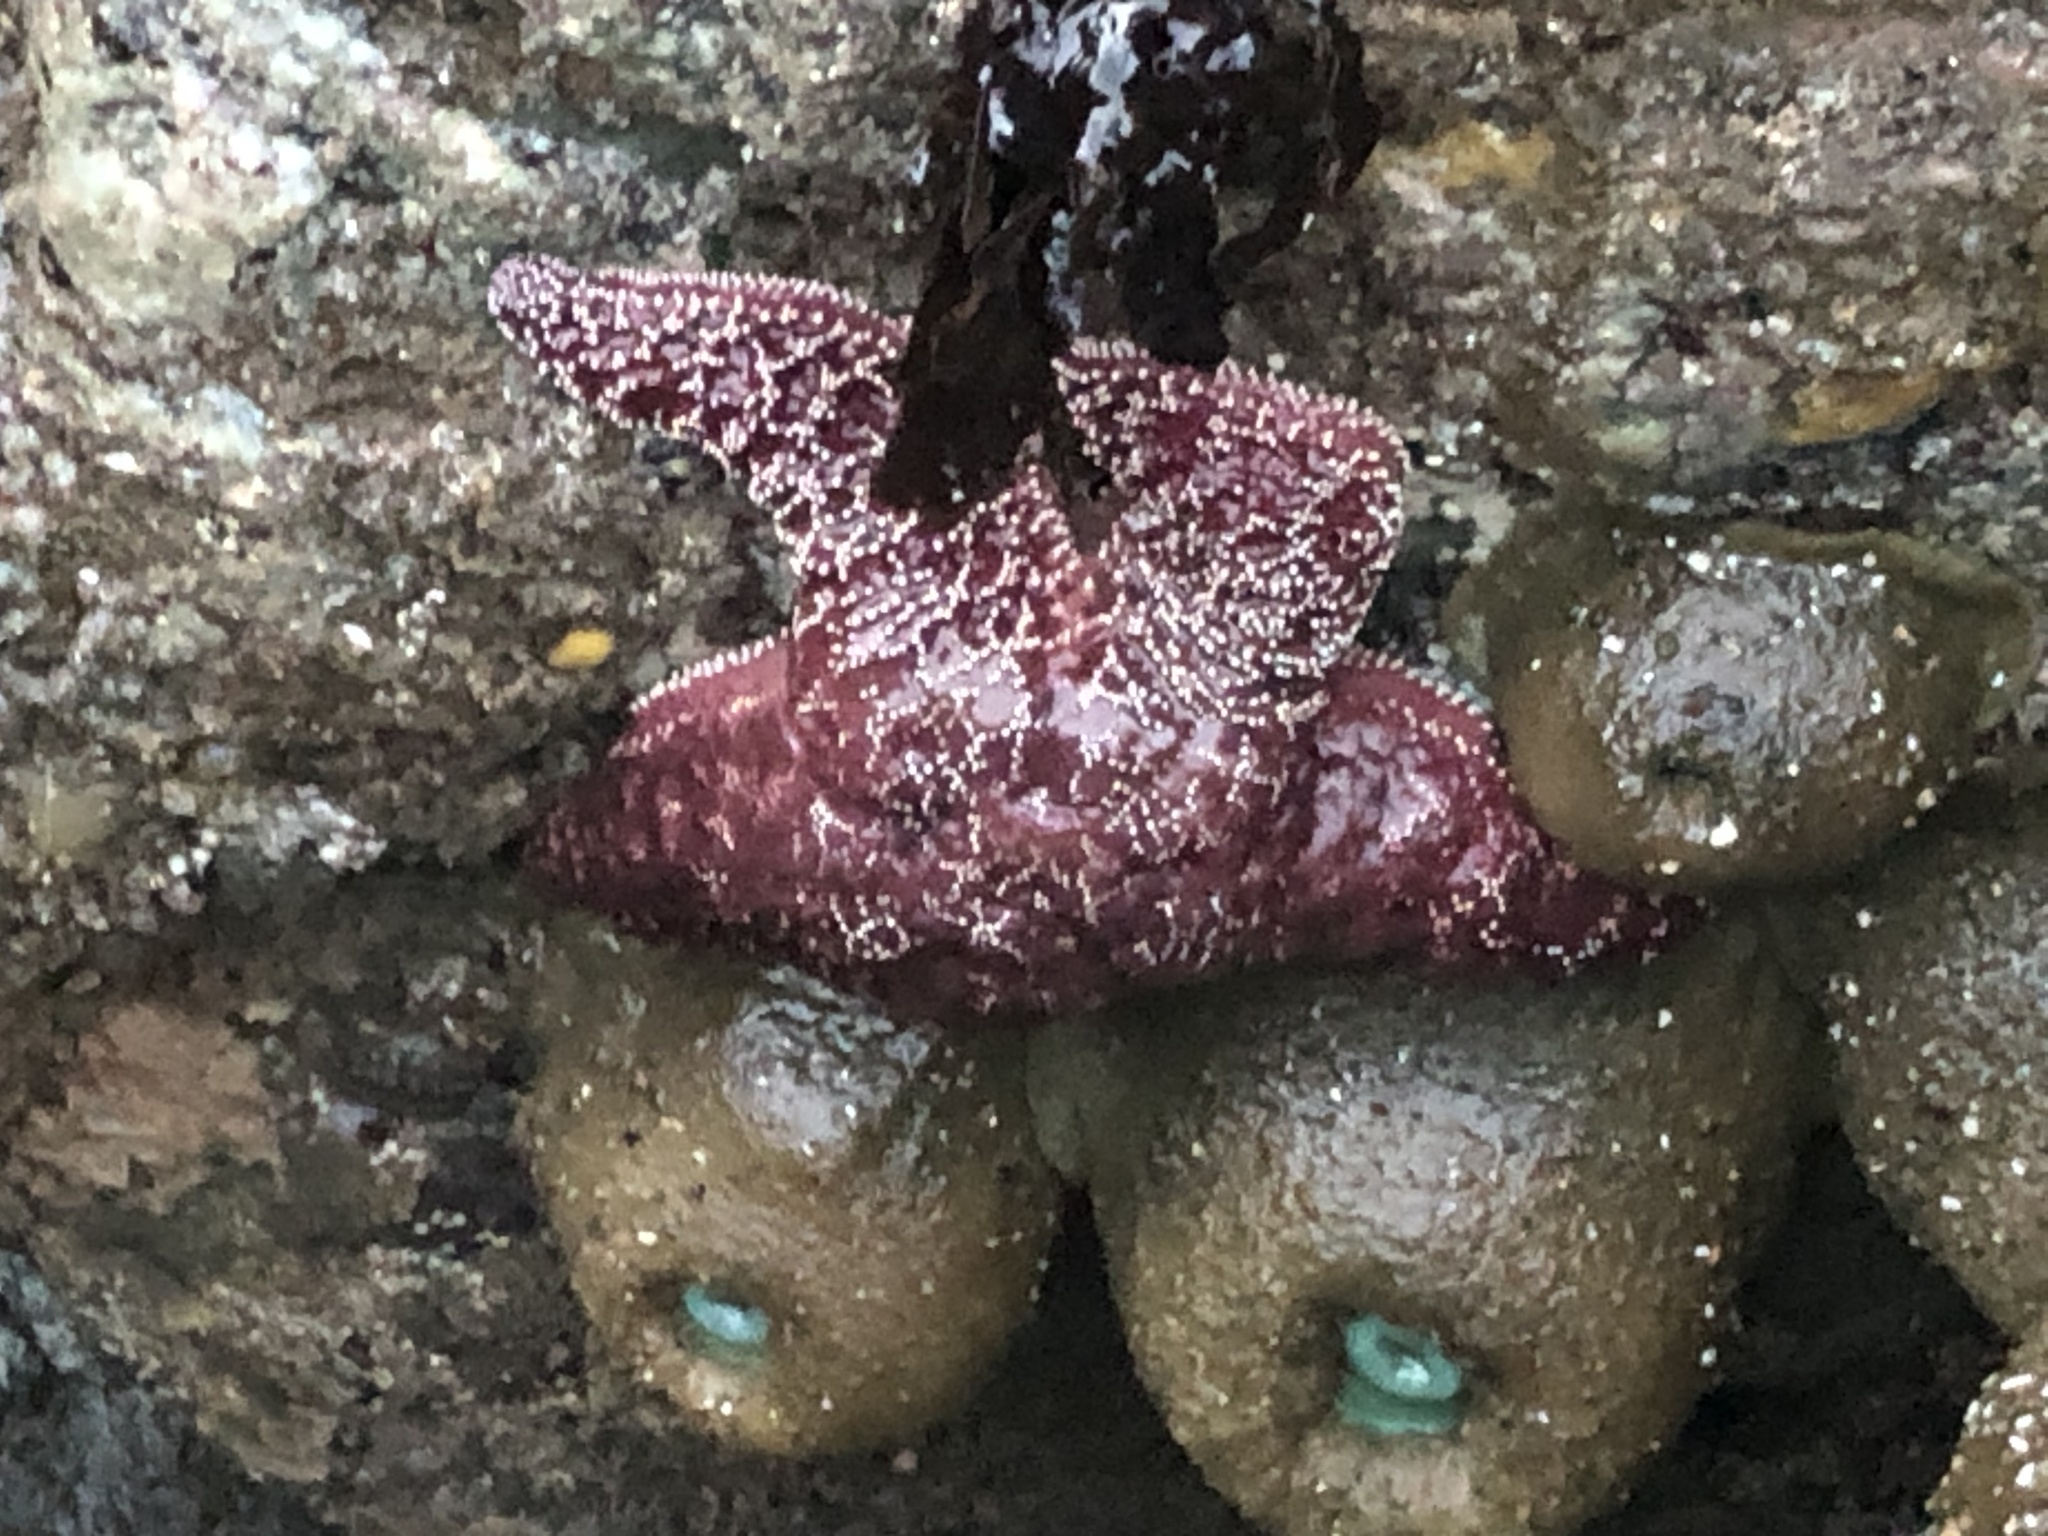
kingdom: Animalia
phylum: Echinodermata
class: Asteroidea
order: Forcipulatida
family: Asteriidae
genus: Pisaster
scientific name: Pisaster ochraceus
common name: Ochre stars
